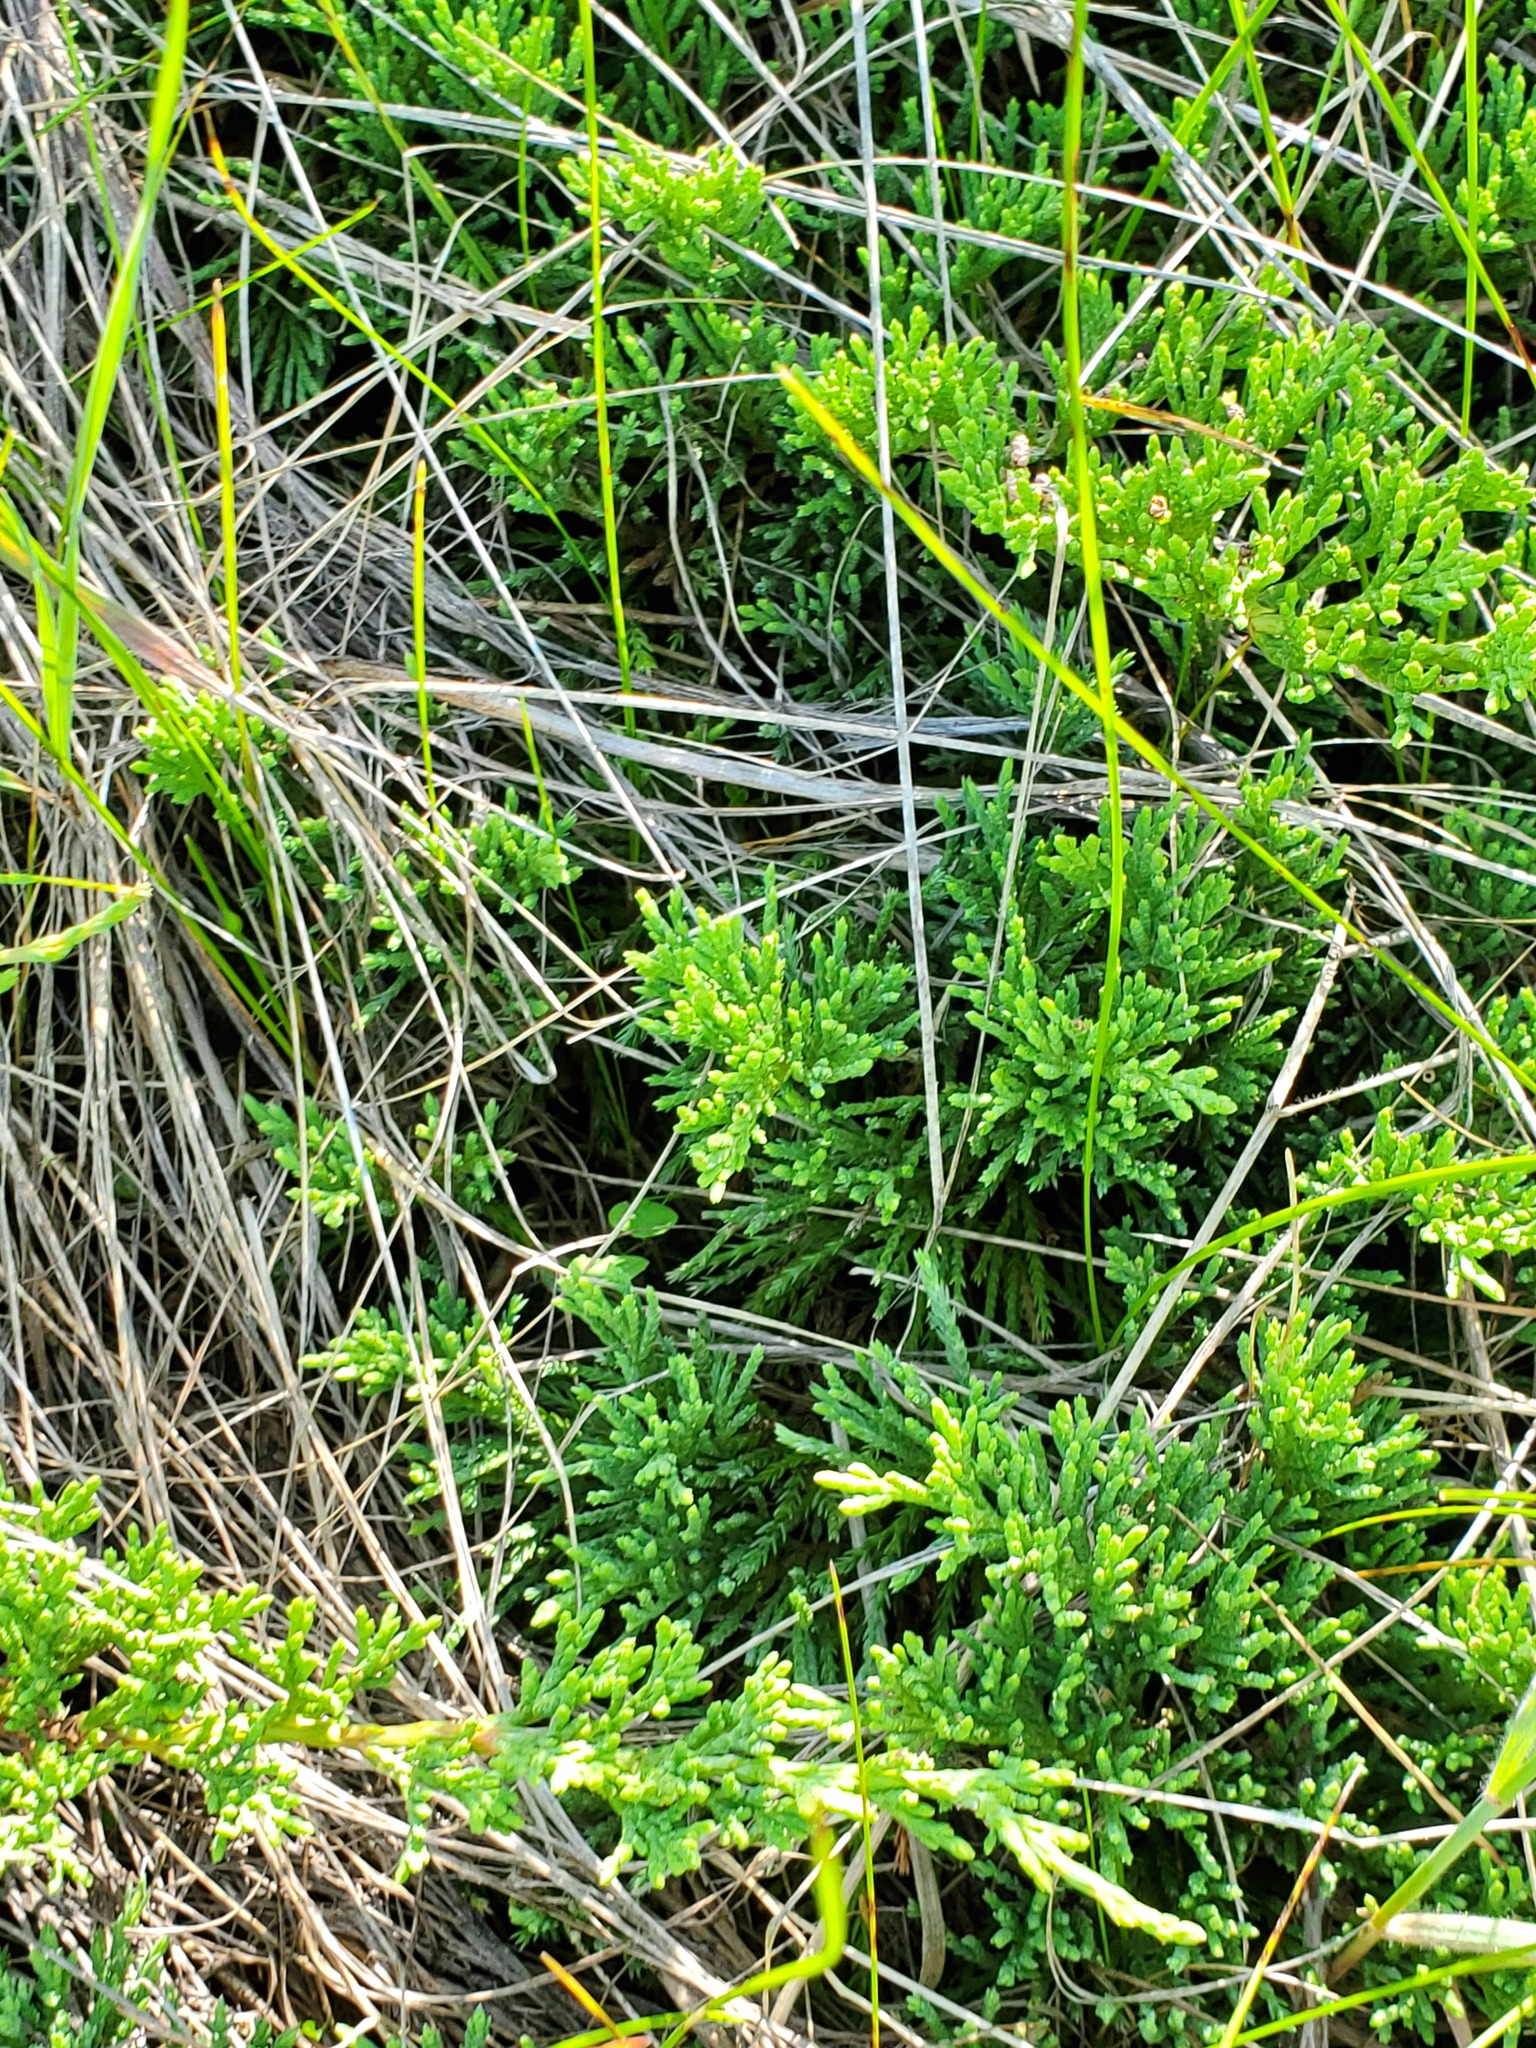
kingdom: Plantae
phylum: Tracheophyta
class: Pinopsida
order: Pinales
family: Cupressaceae
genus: Juniperus
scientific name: Juniperus horizontalis
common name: Creeping juniper
